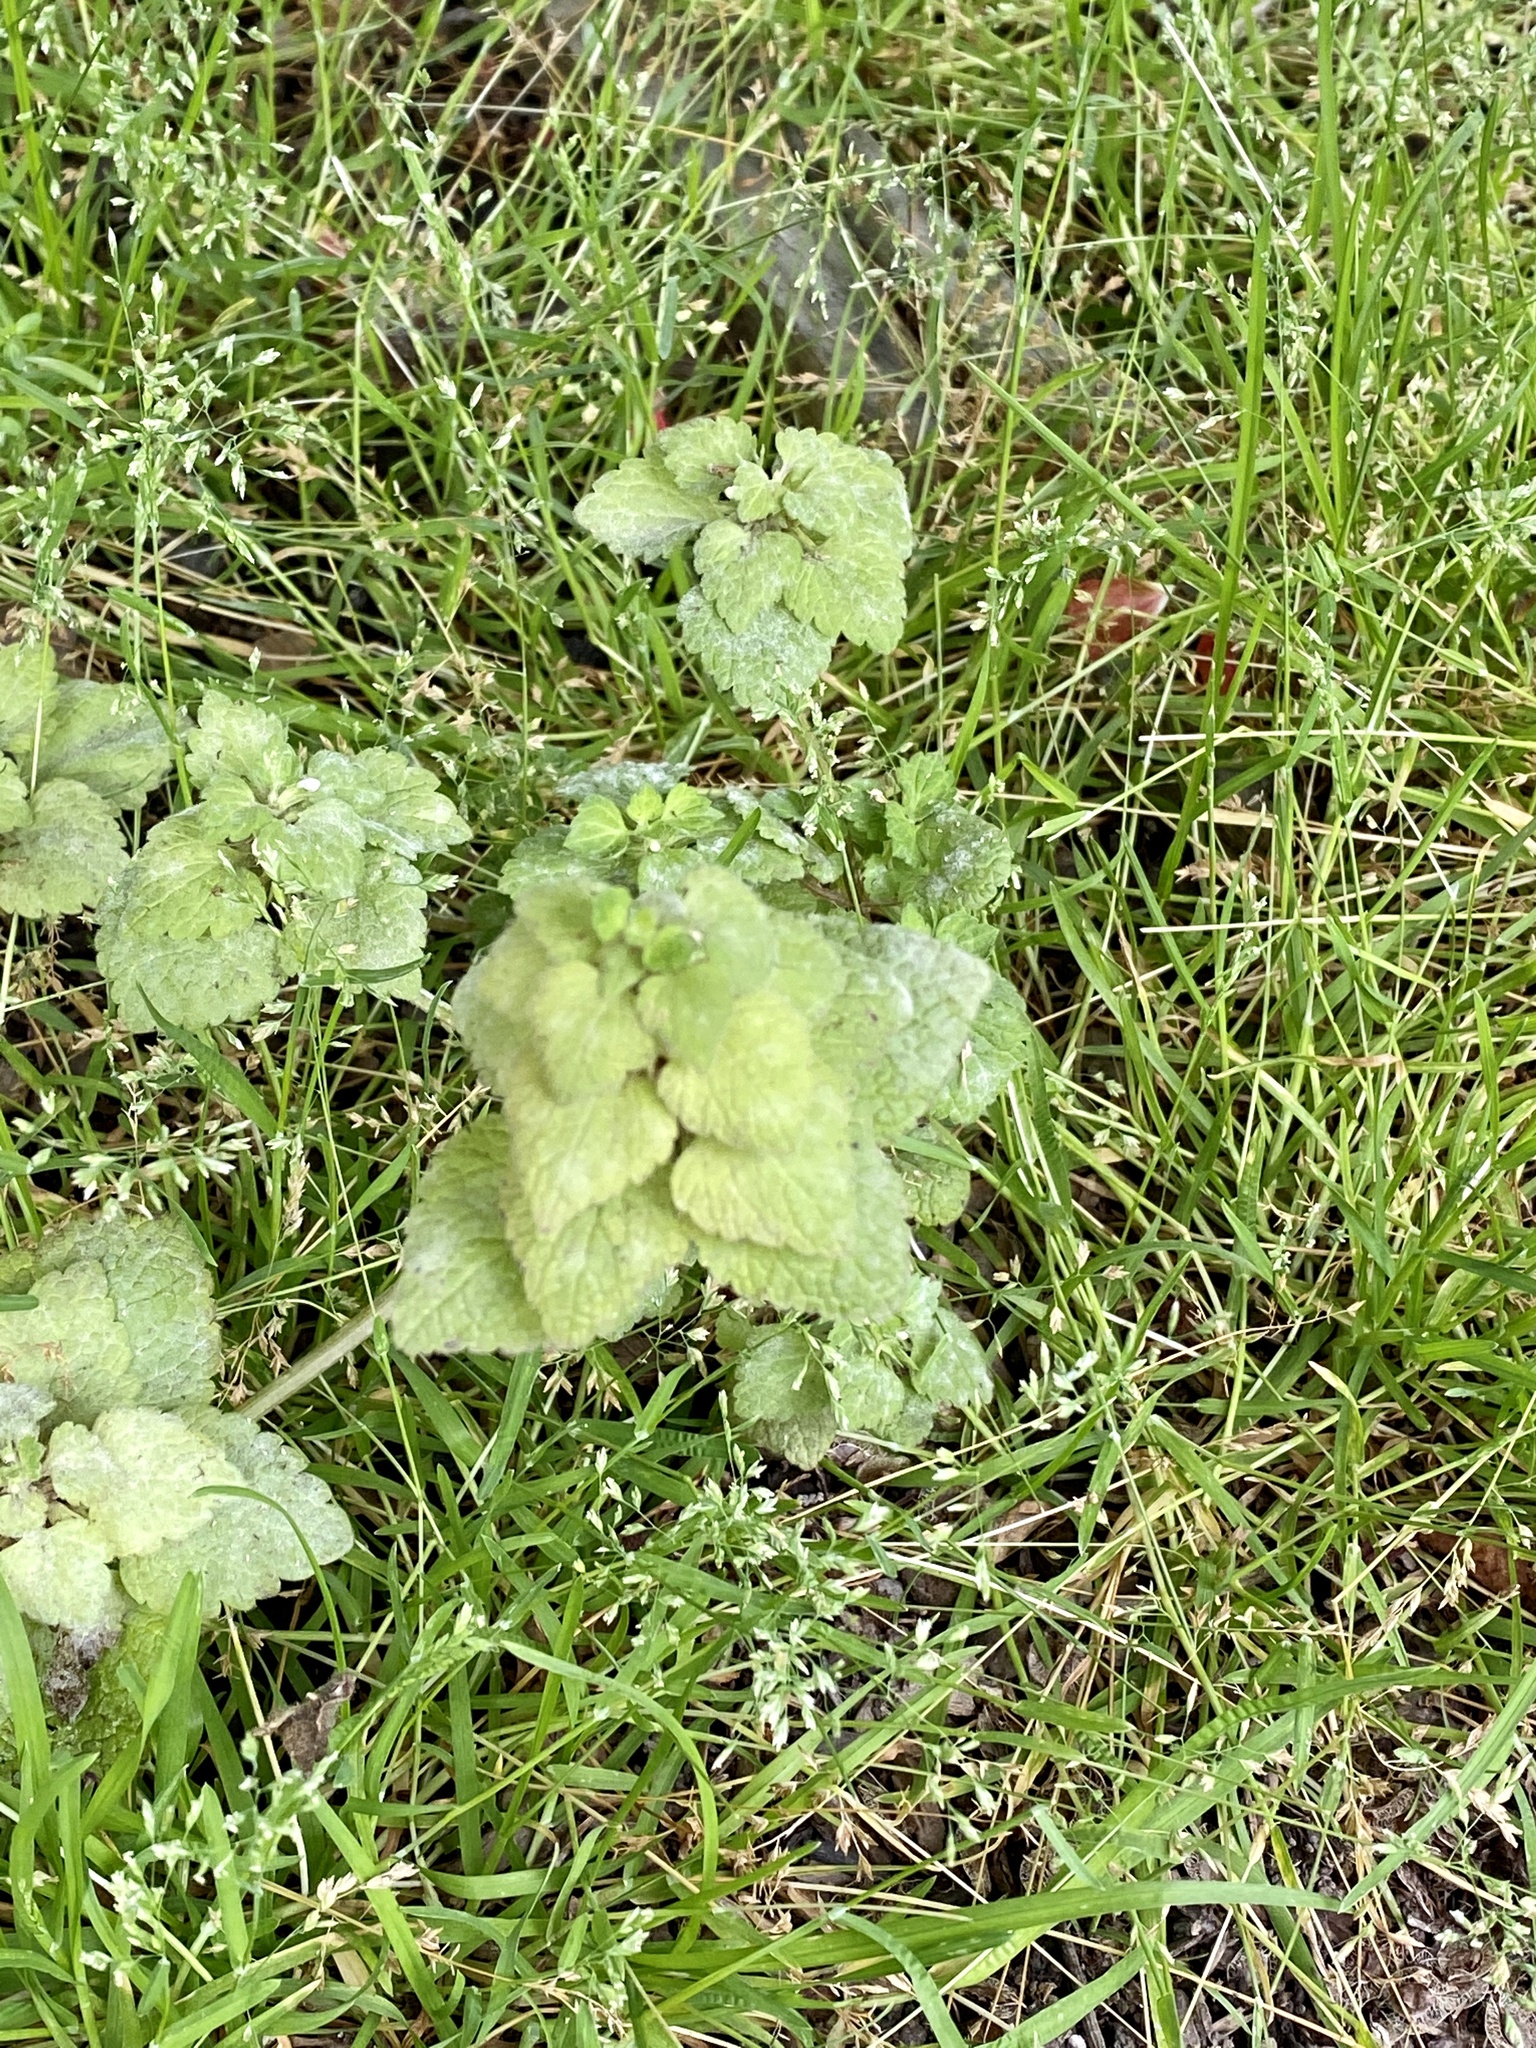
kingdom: Plantae
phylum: Tracheophyta
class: Magnoliopsida
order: Lamiales
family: Lamiaceae
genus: Lamium
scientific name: Lamium purpureum
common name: Red dead-nettle
